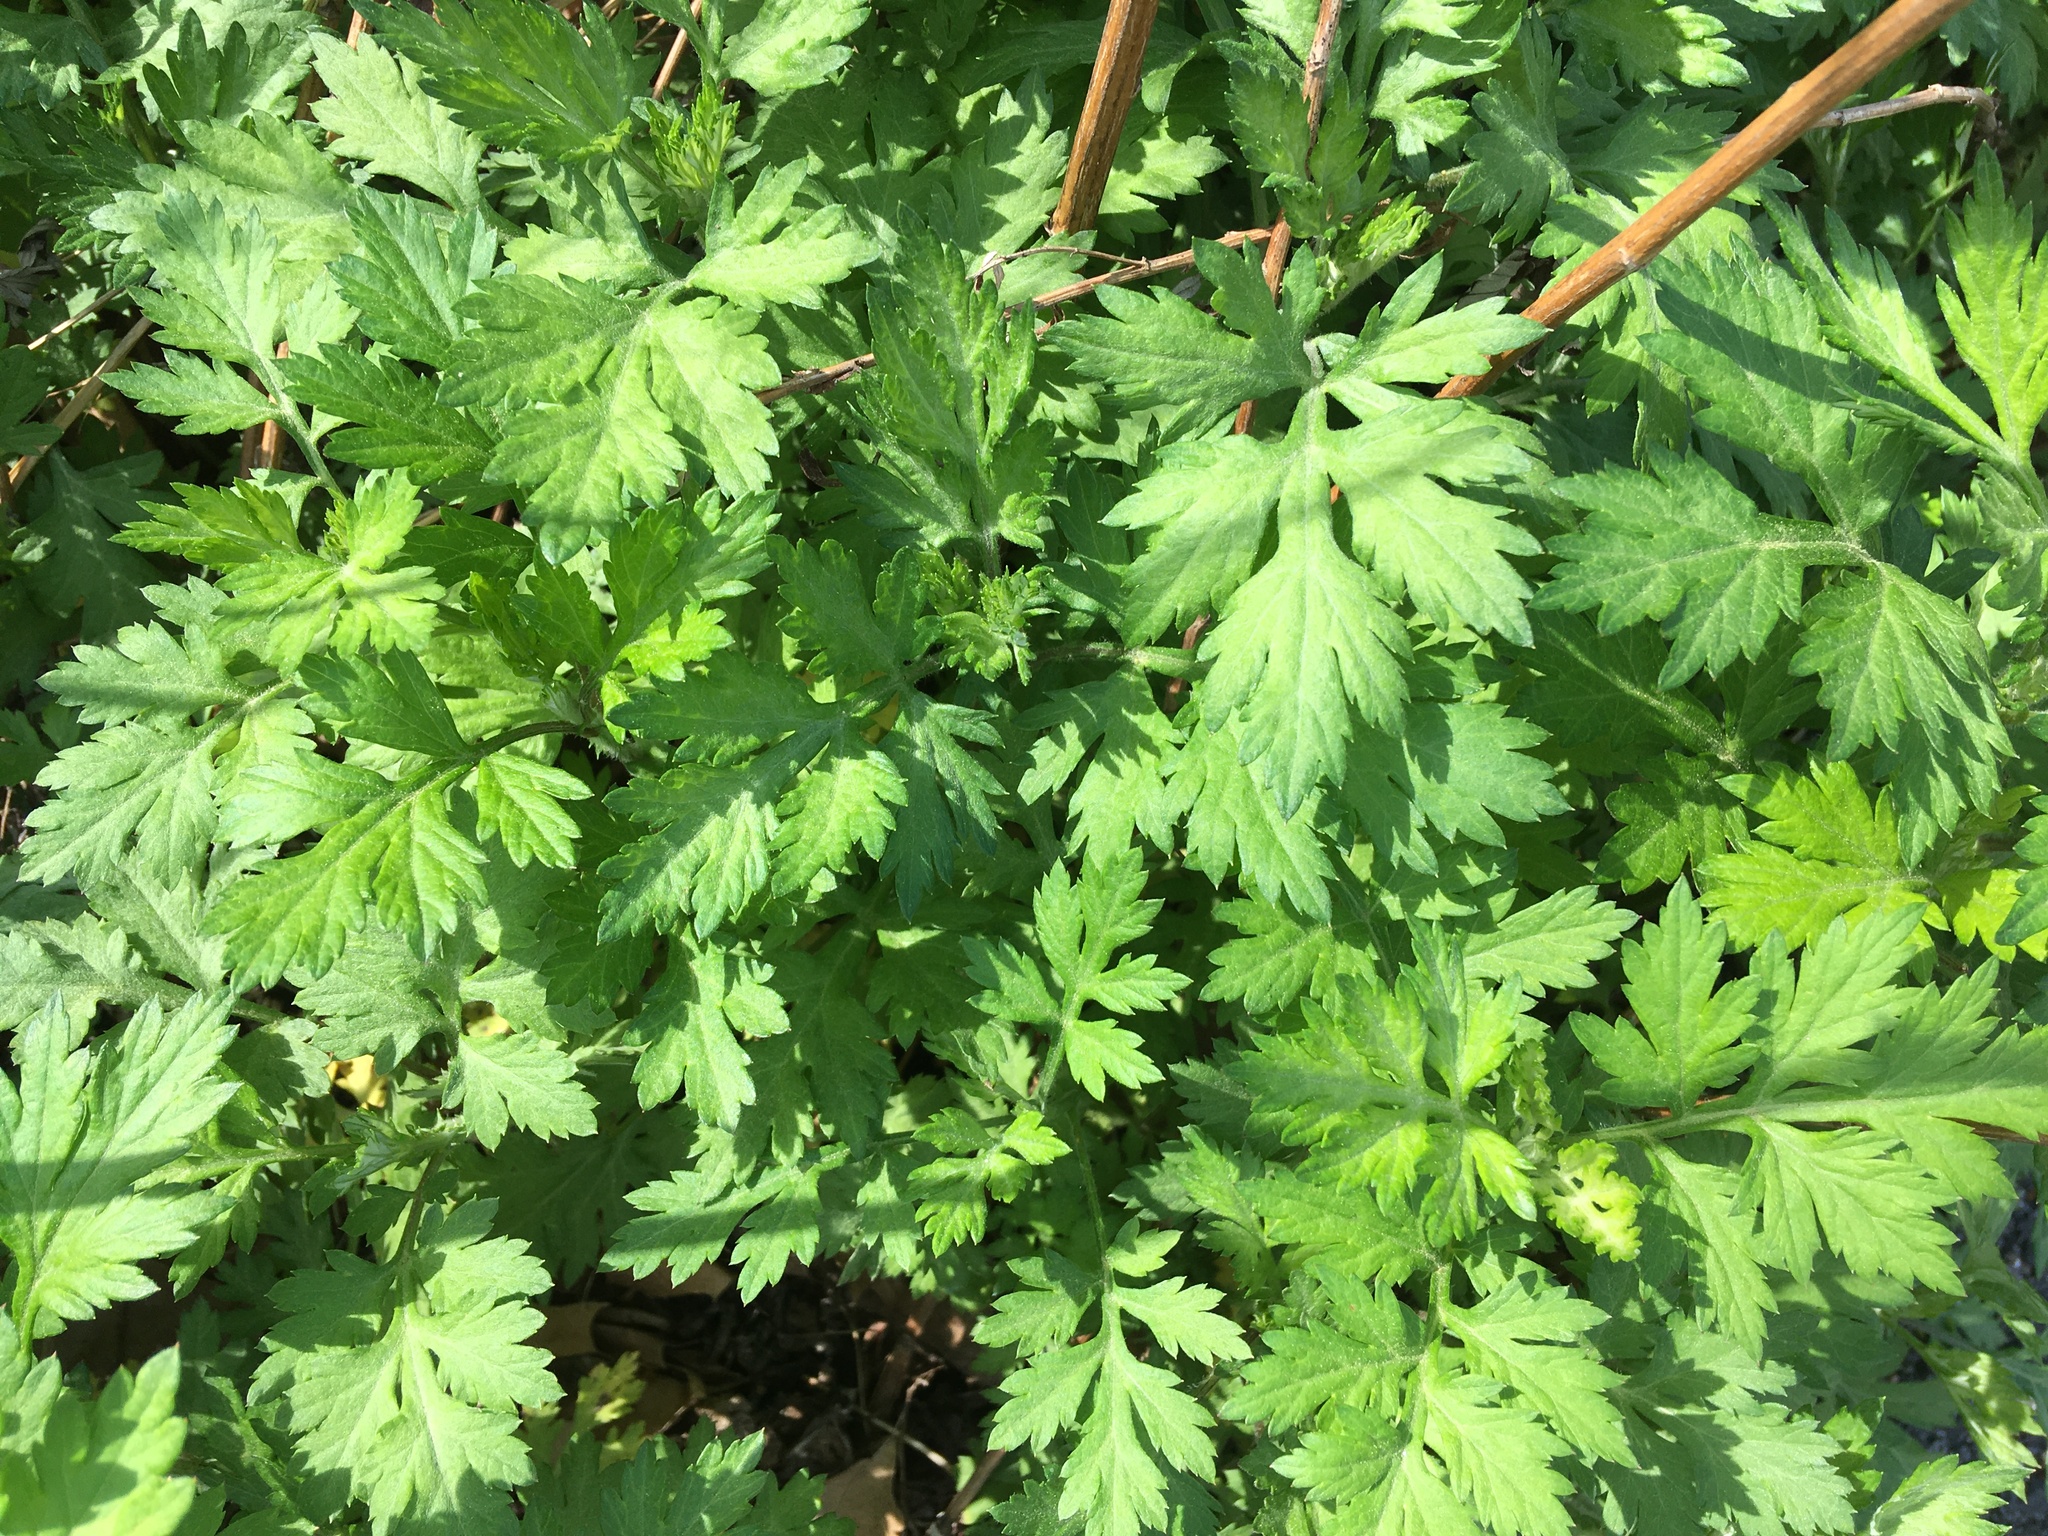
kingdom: Plantae
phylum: Tracheophyta
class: Magnoliopsida
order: Asterales
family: Asteraceae
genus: Artemisia
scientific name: Artemisia vulgaris
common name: Mugwort
